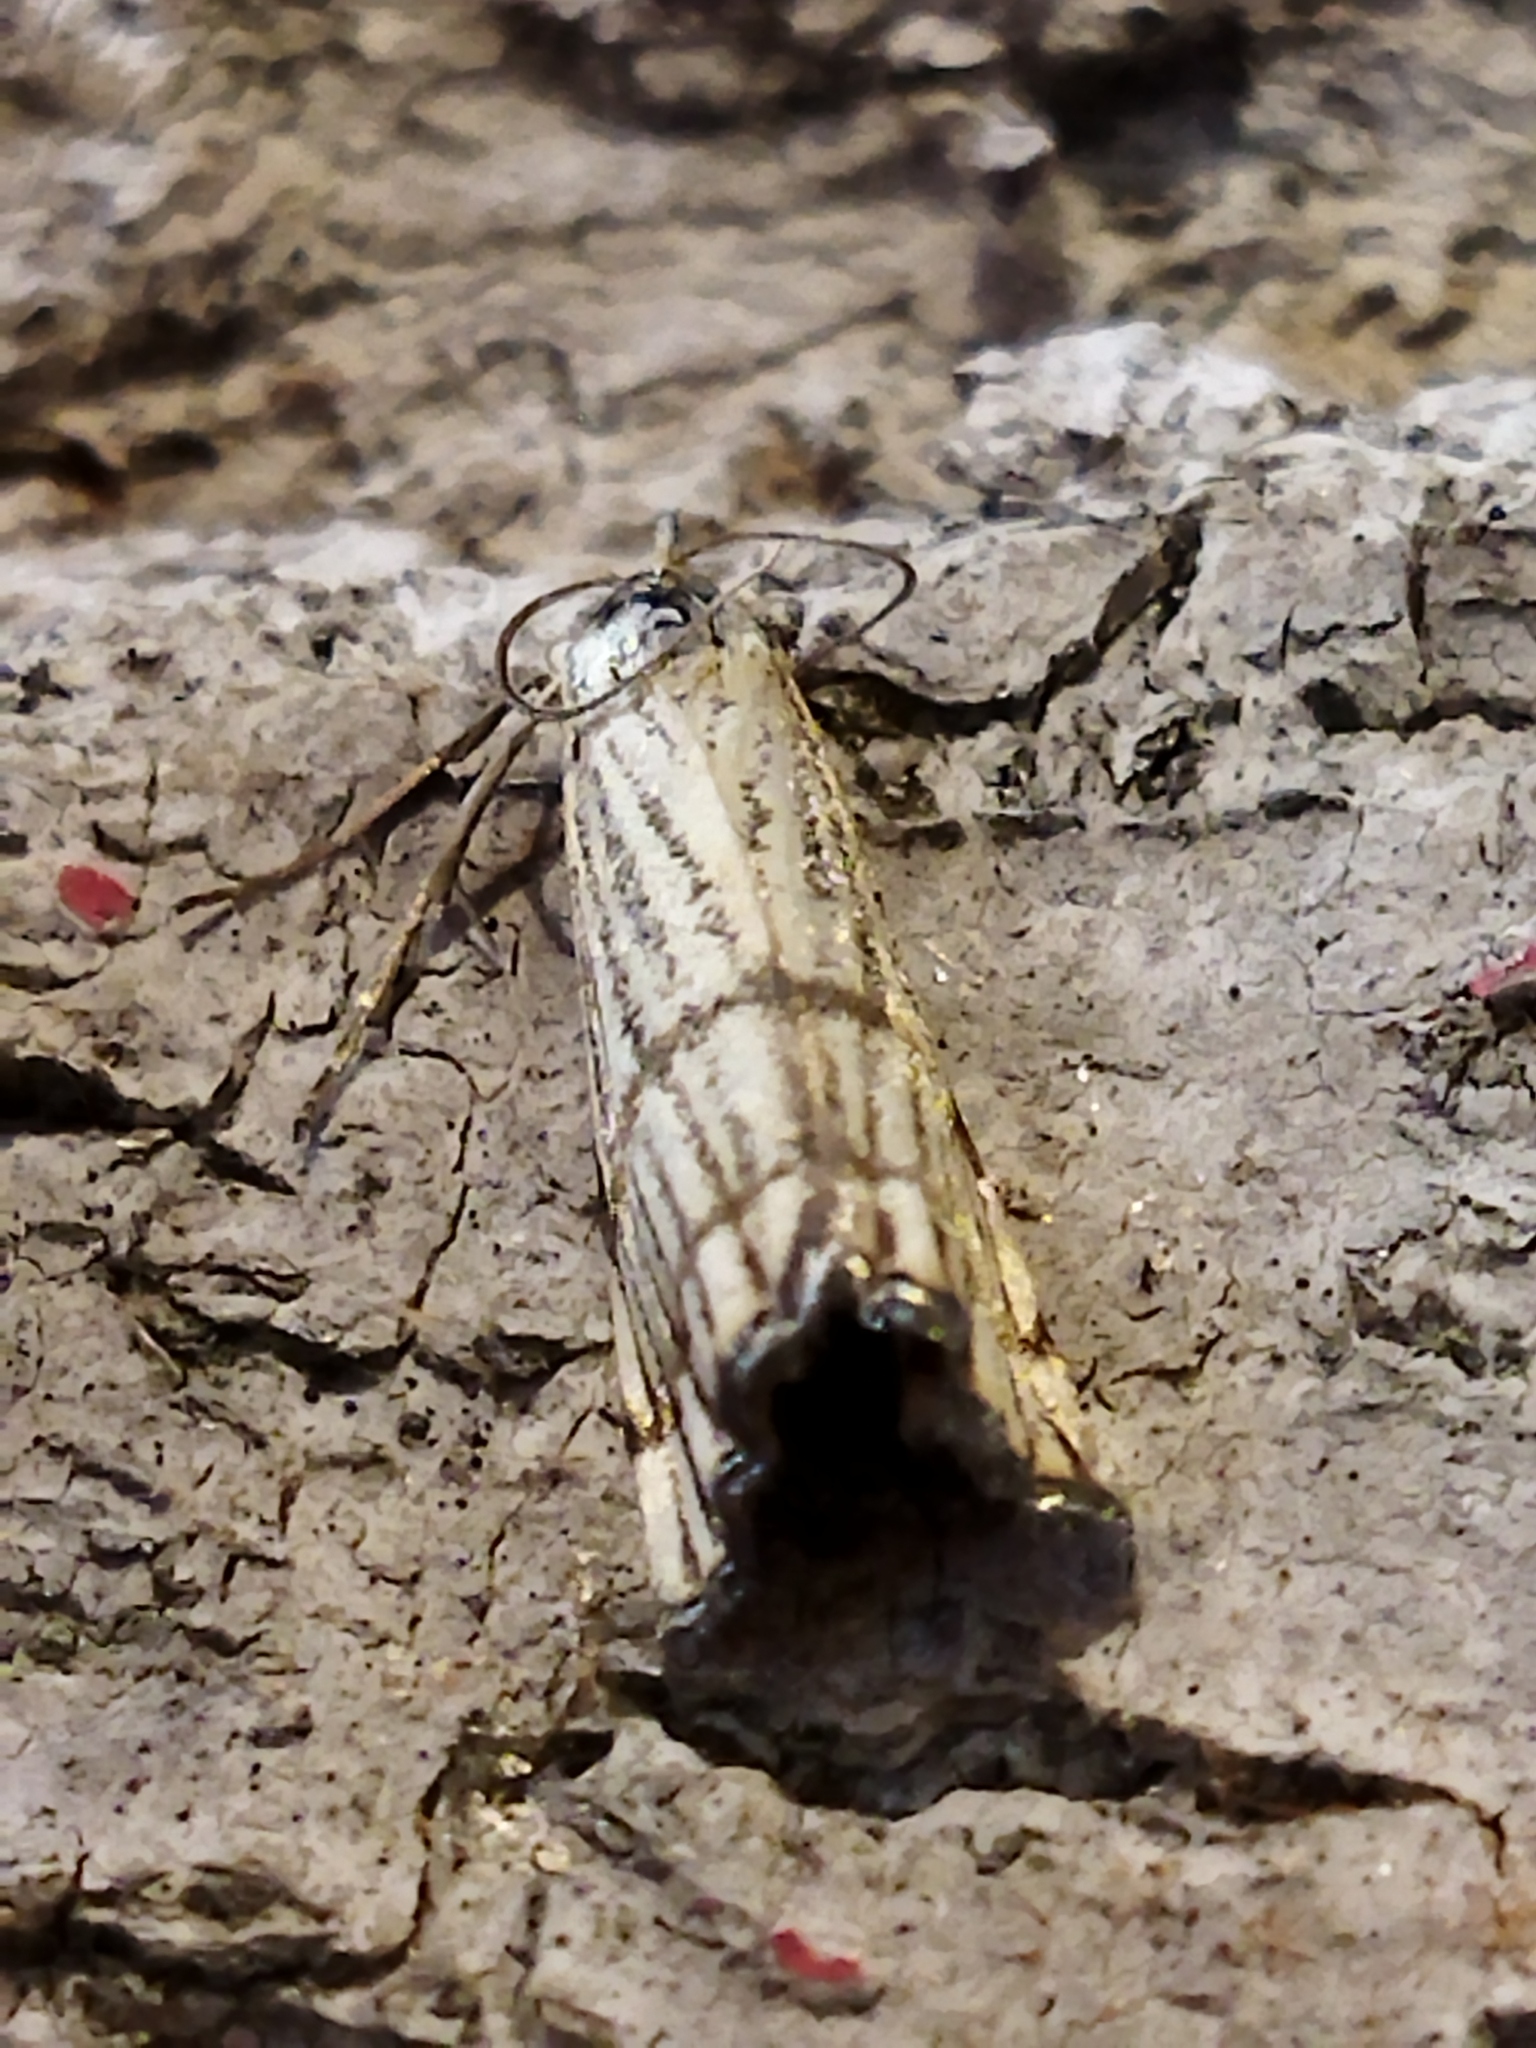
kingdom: Animalia
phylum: Arthropoda
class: Insecta
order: Lepidoptera
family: Crambidae
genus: Chrysocrambus
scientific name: Chrysocrambus linetella
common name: Orange-bar grass-veneer
